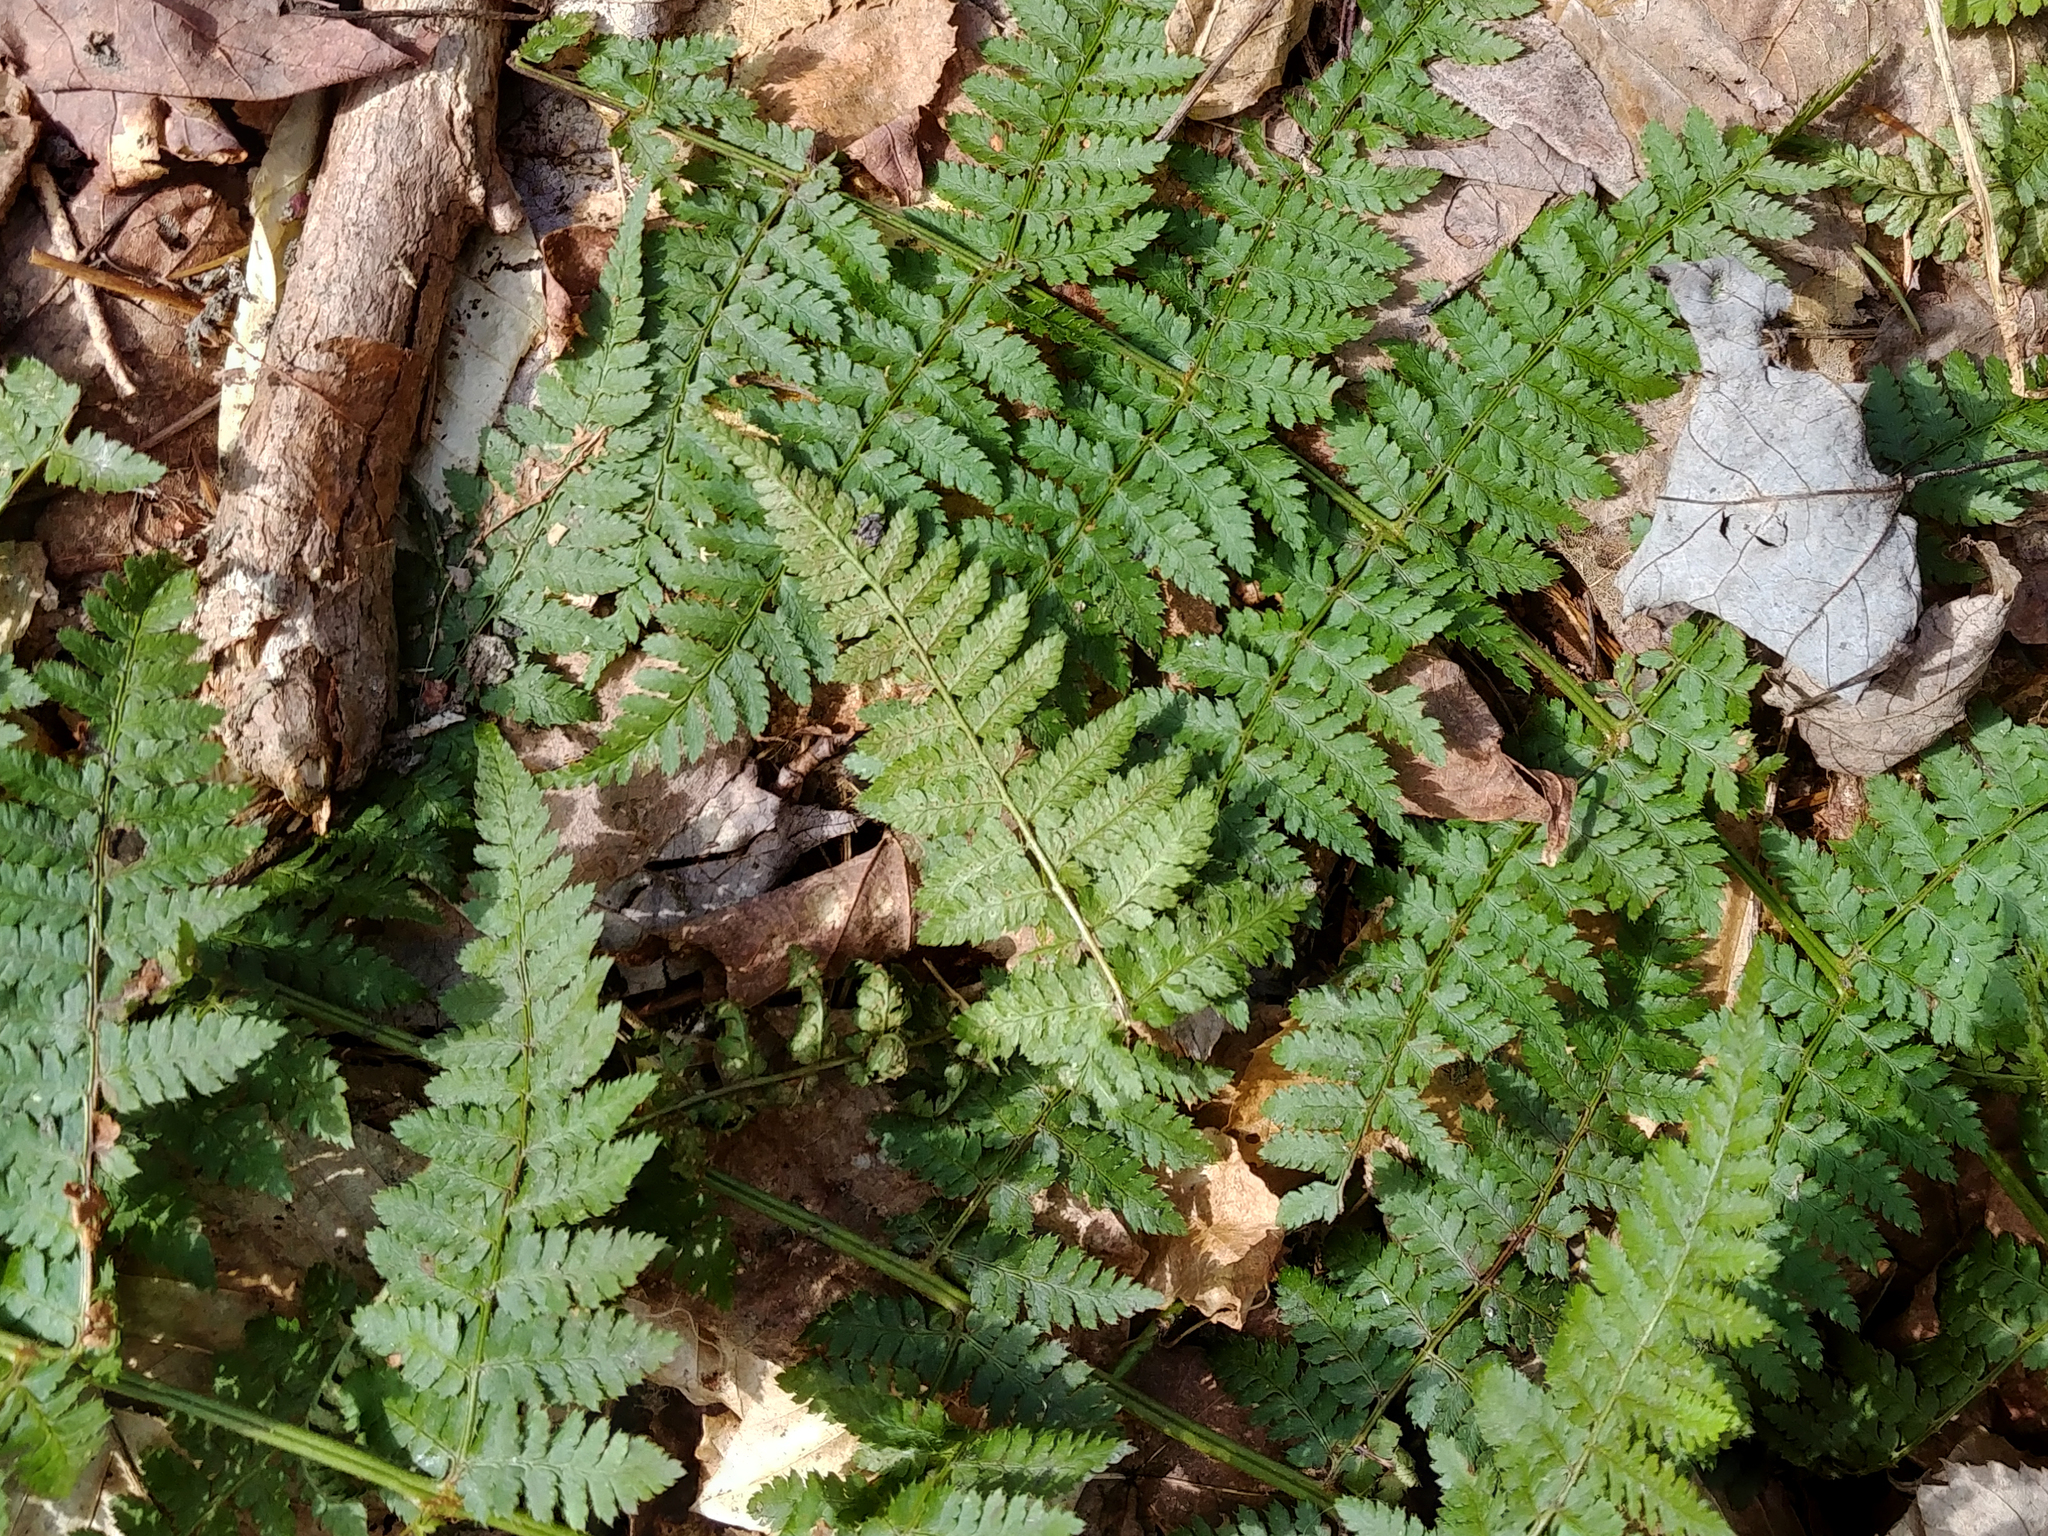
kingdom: Plantae
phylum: Tracheophyta
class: Polypodiopsida
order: Polypodiales
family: Dryopteridaceae
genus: Dryopteris
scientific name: Dryopteris intermedia
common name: Evergreen wood fern
